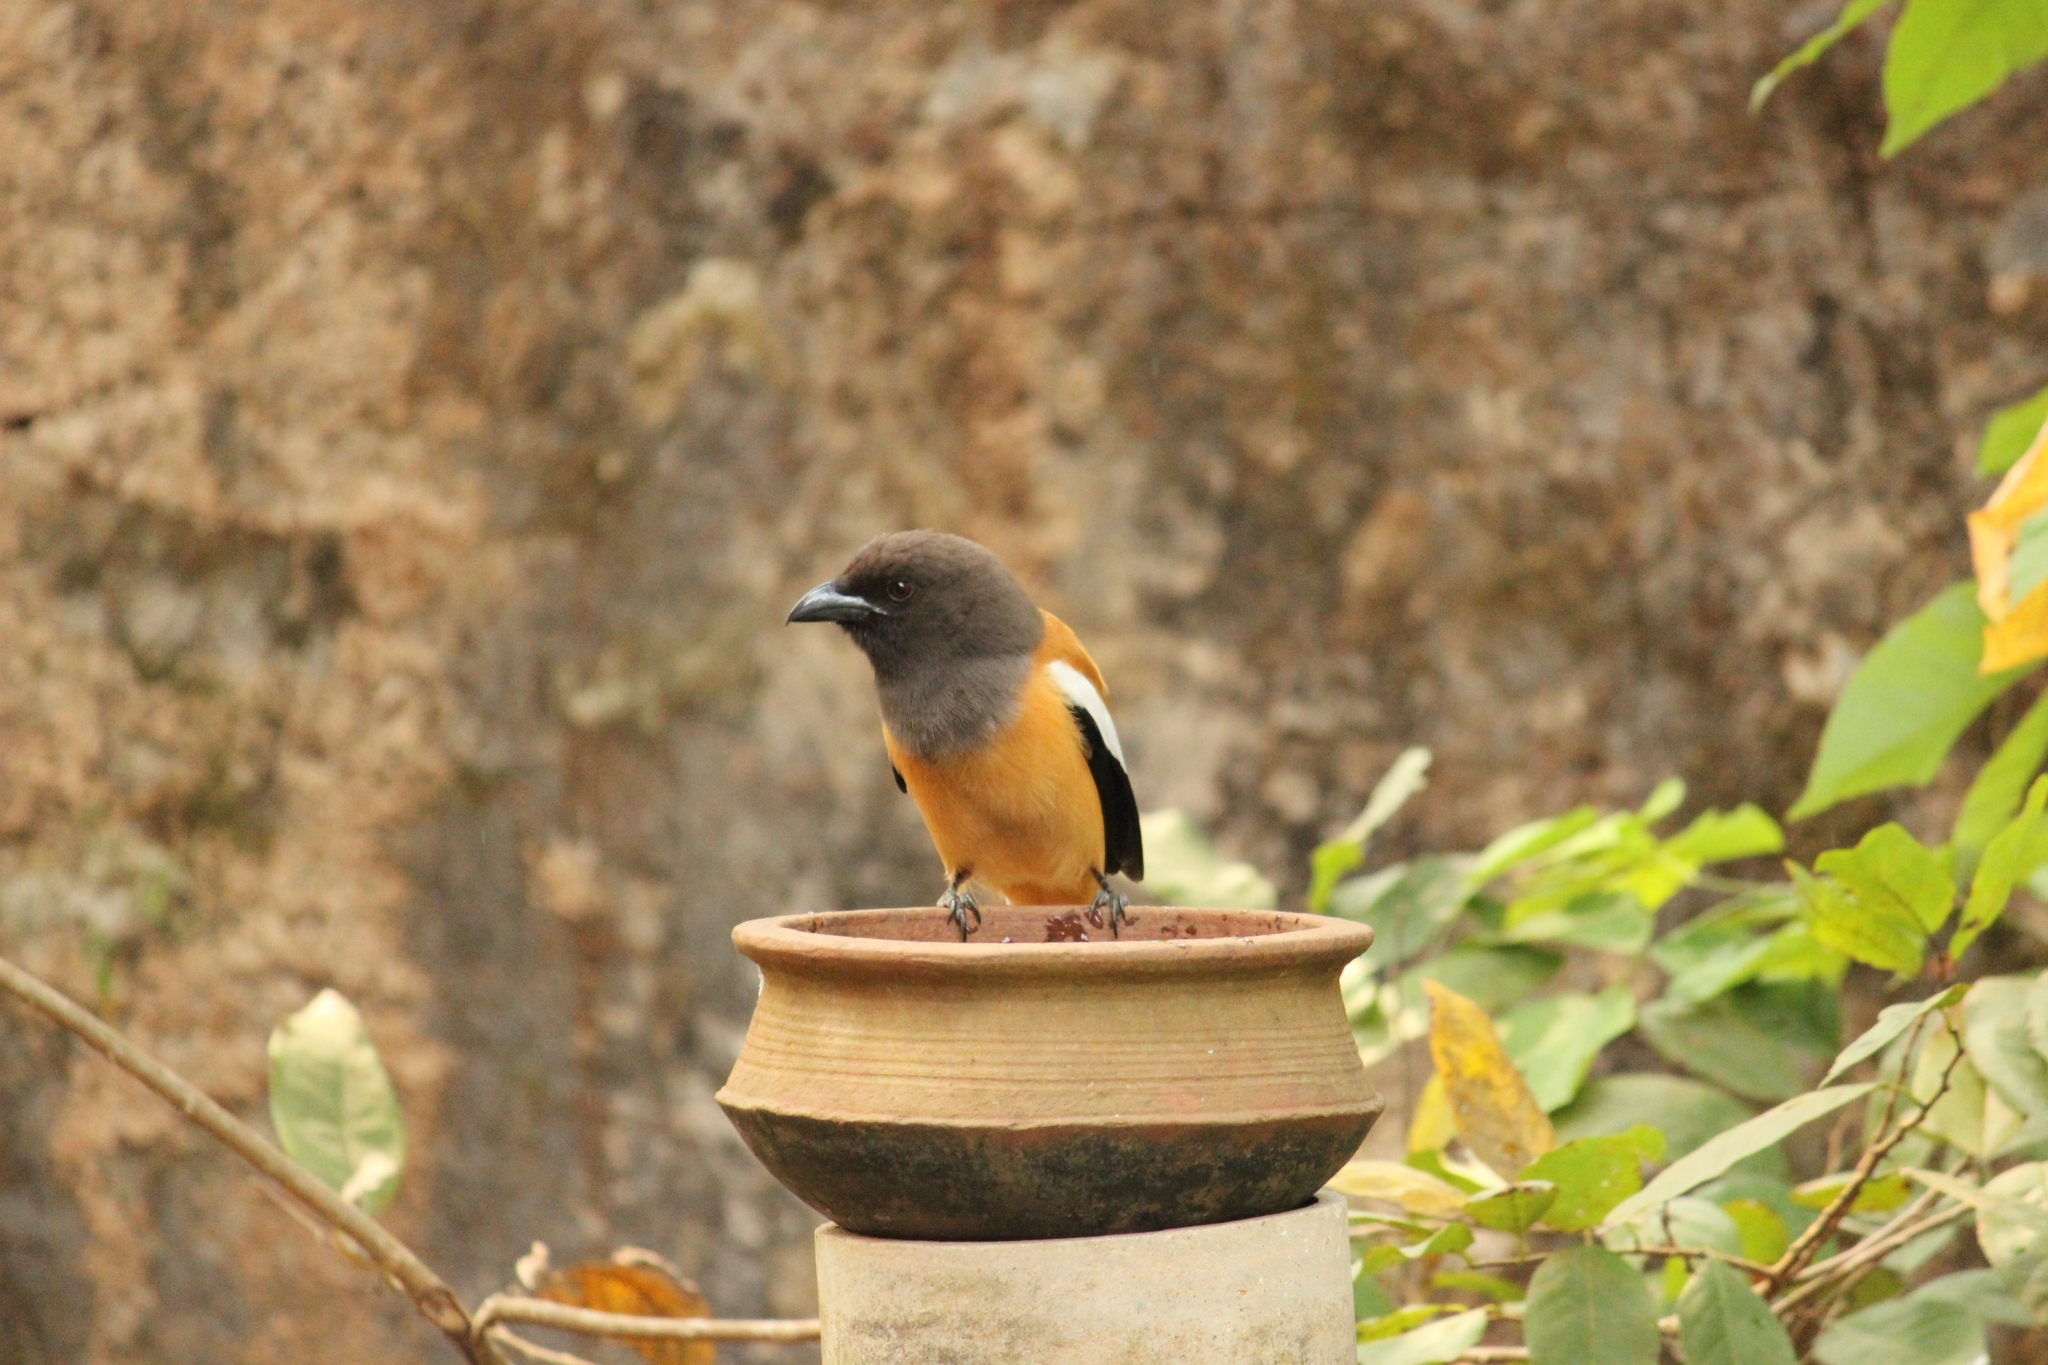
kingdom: Animalia
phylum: Chordata
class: Aves
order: Passeriformes
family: Corvidae
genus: Dendrocitta
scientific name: Dendrocitta vagabunda
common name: Rufous treepie
